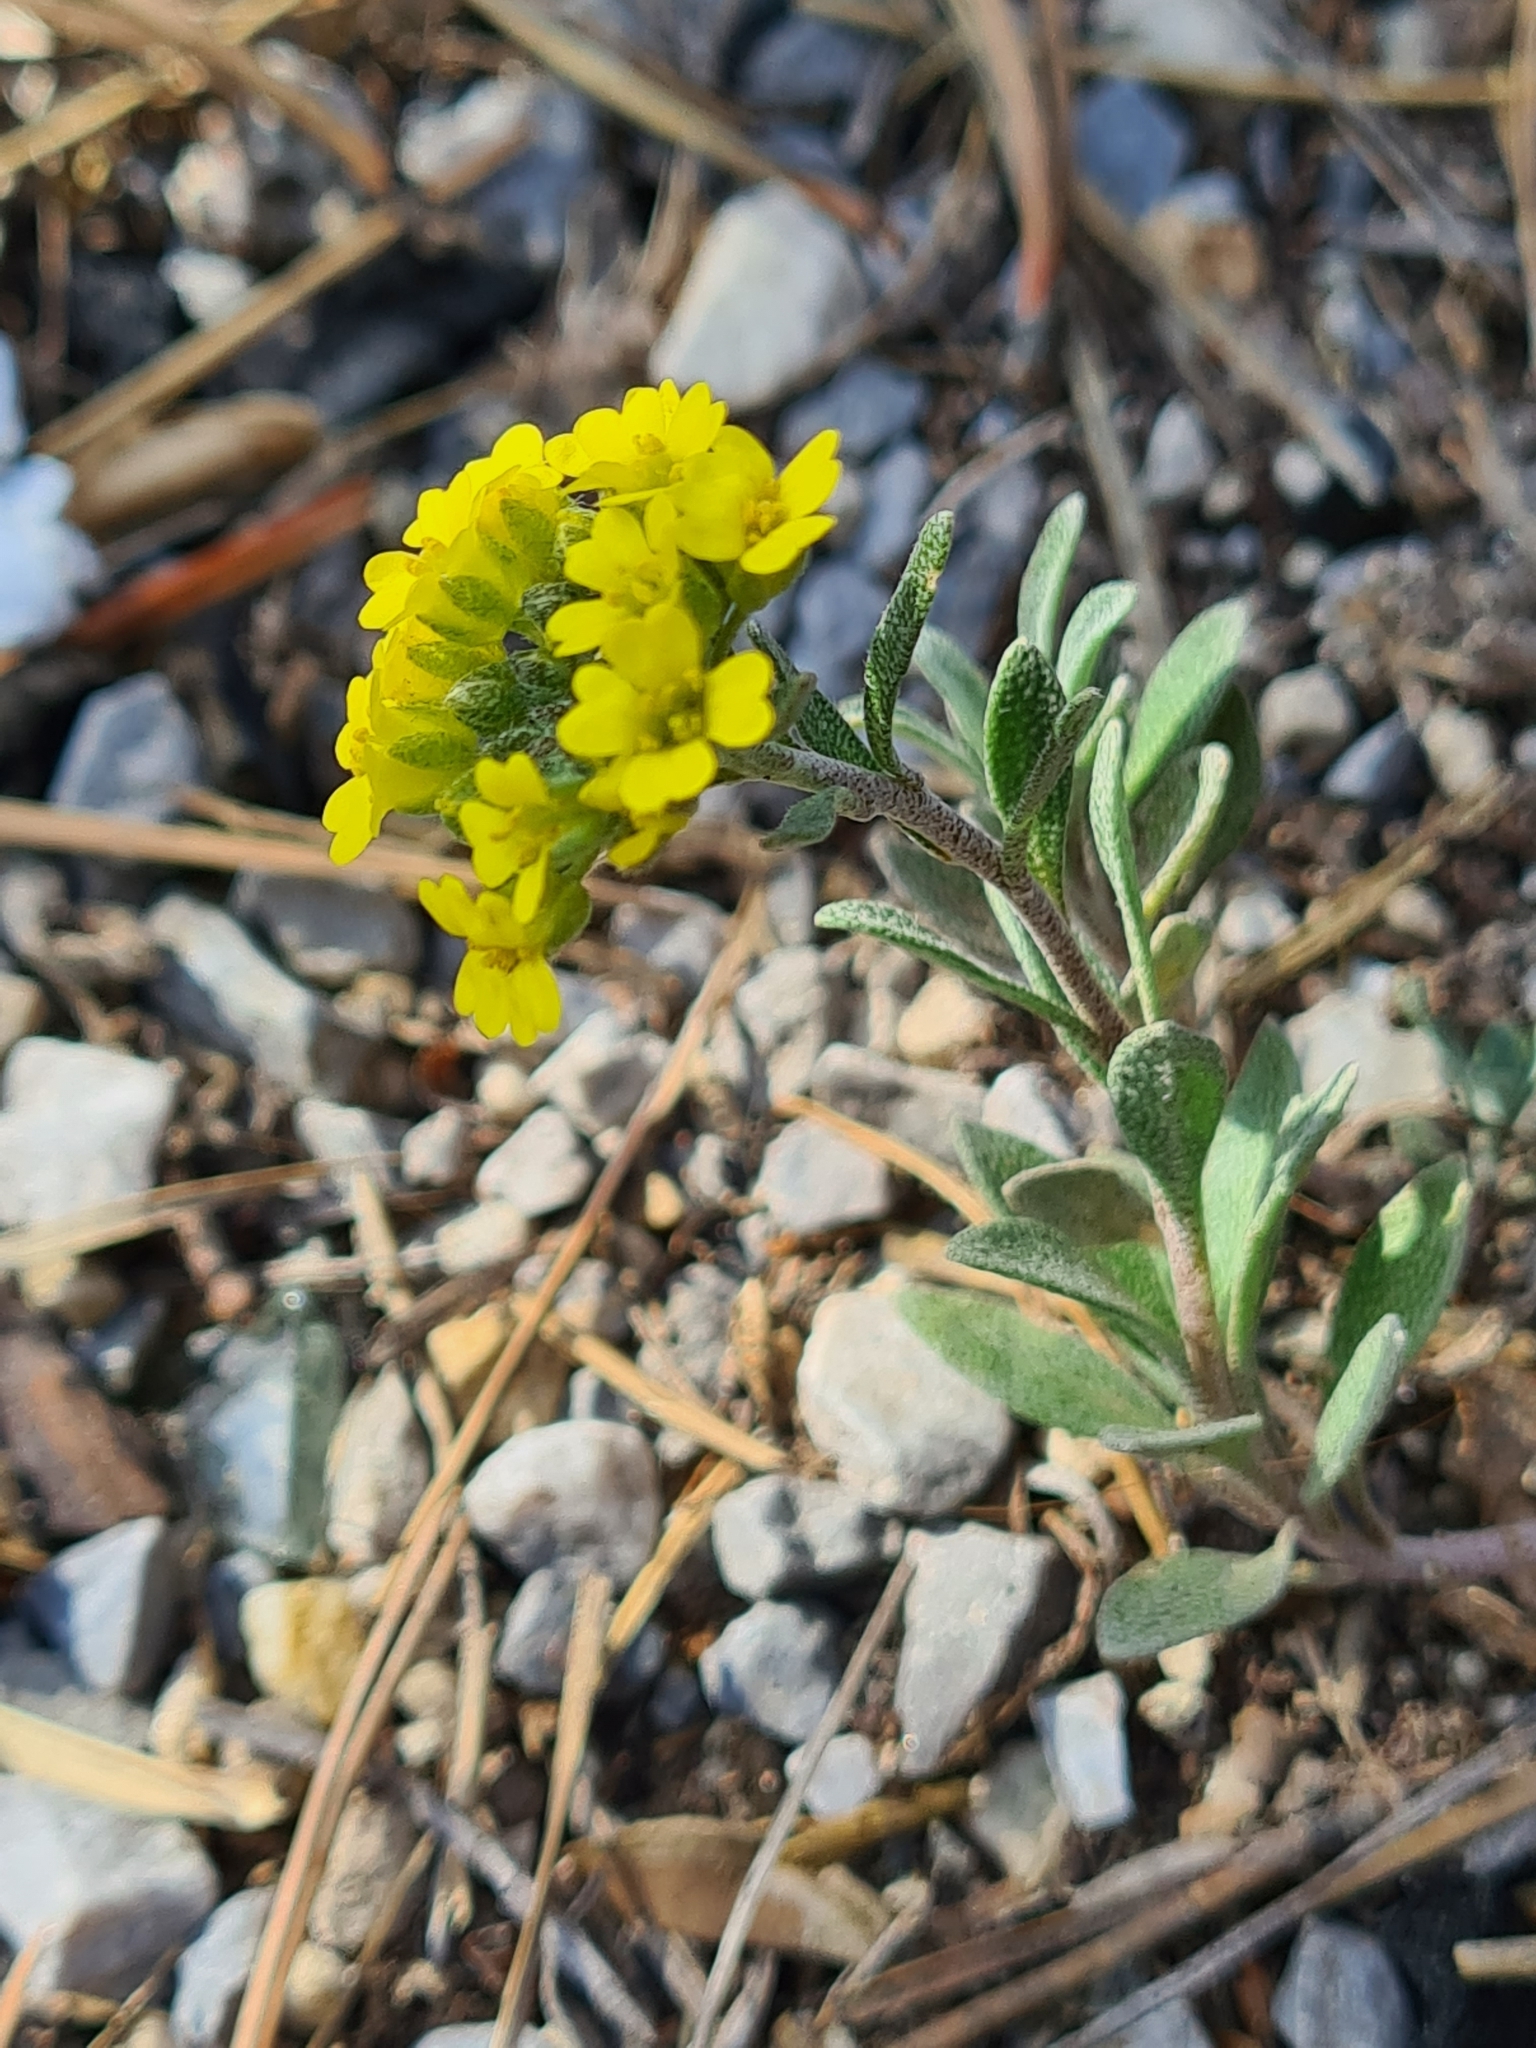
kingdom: Plantae
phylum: Tracheophyta
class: Magnoliopsida
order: Brassicales
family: Brassicaceae
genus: Alyssum
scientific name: Alyssum gmelinii
